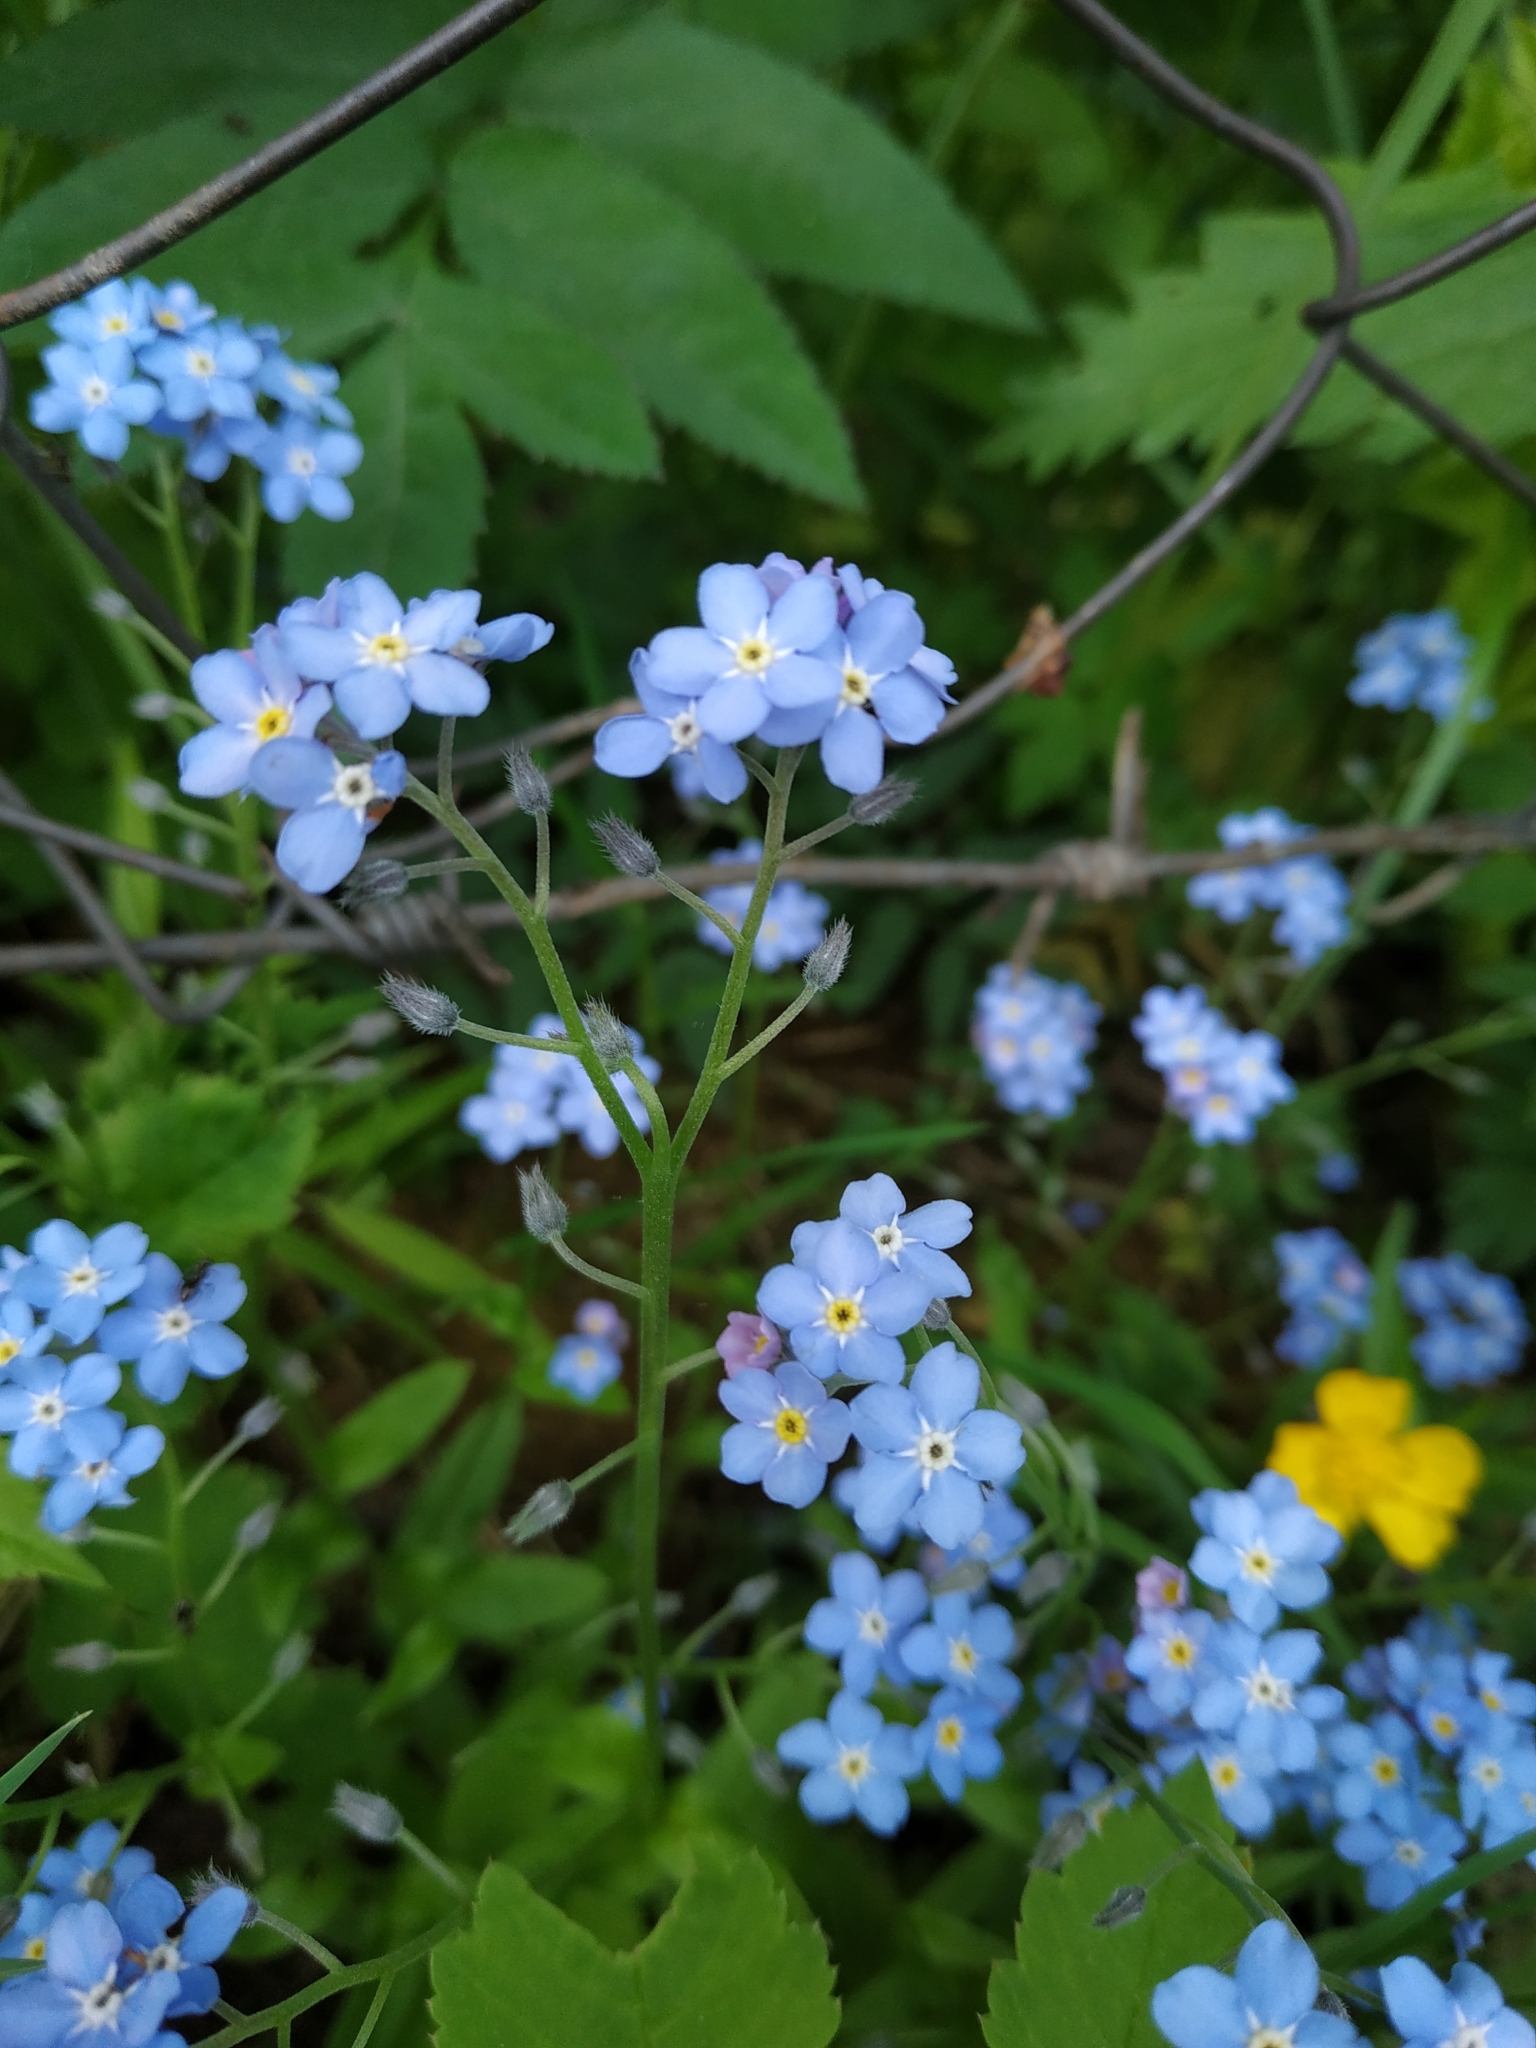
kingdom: Plantae
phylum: Tracheophyta
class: Magnoliopsida
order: Boraginales
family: Boraginaceae
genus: Myosotis
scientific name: Myosotis sylvatica
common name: Wood forget-me-not
